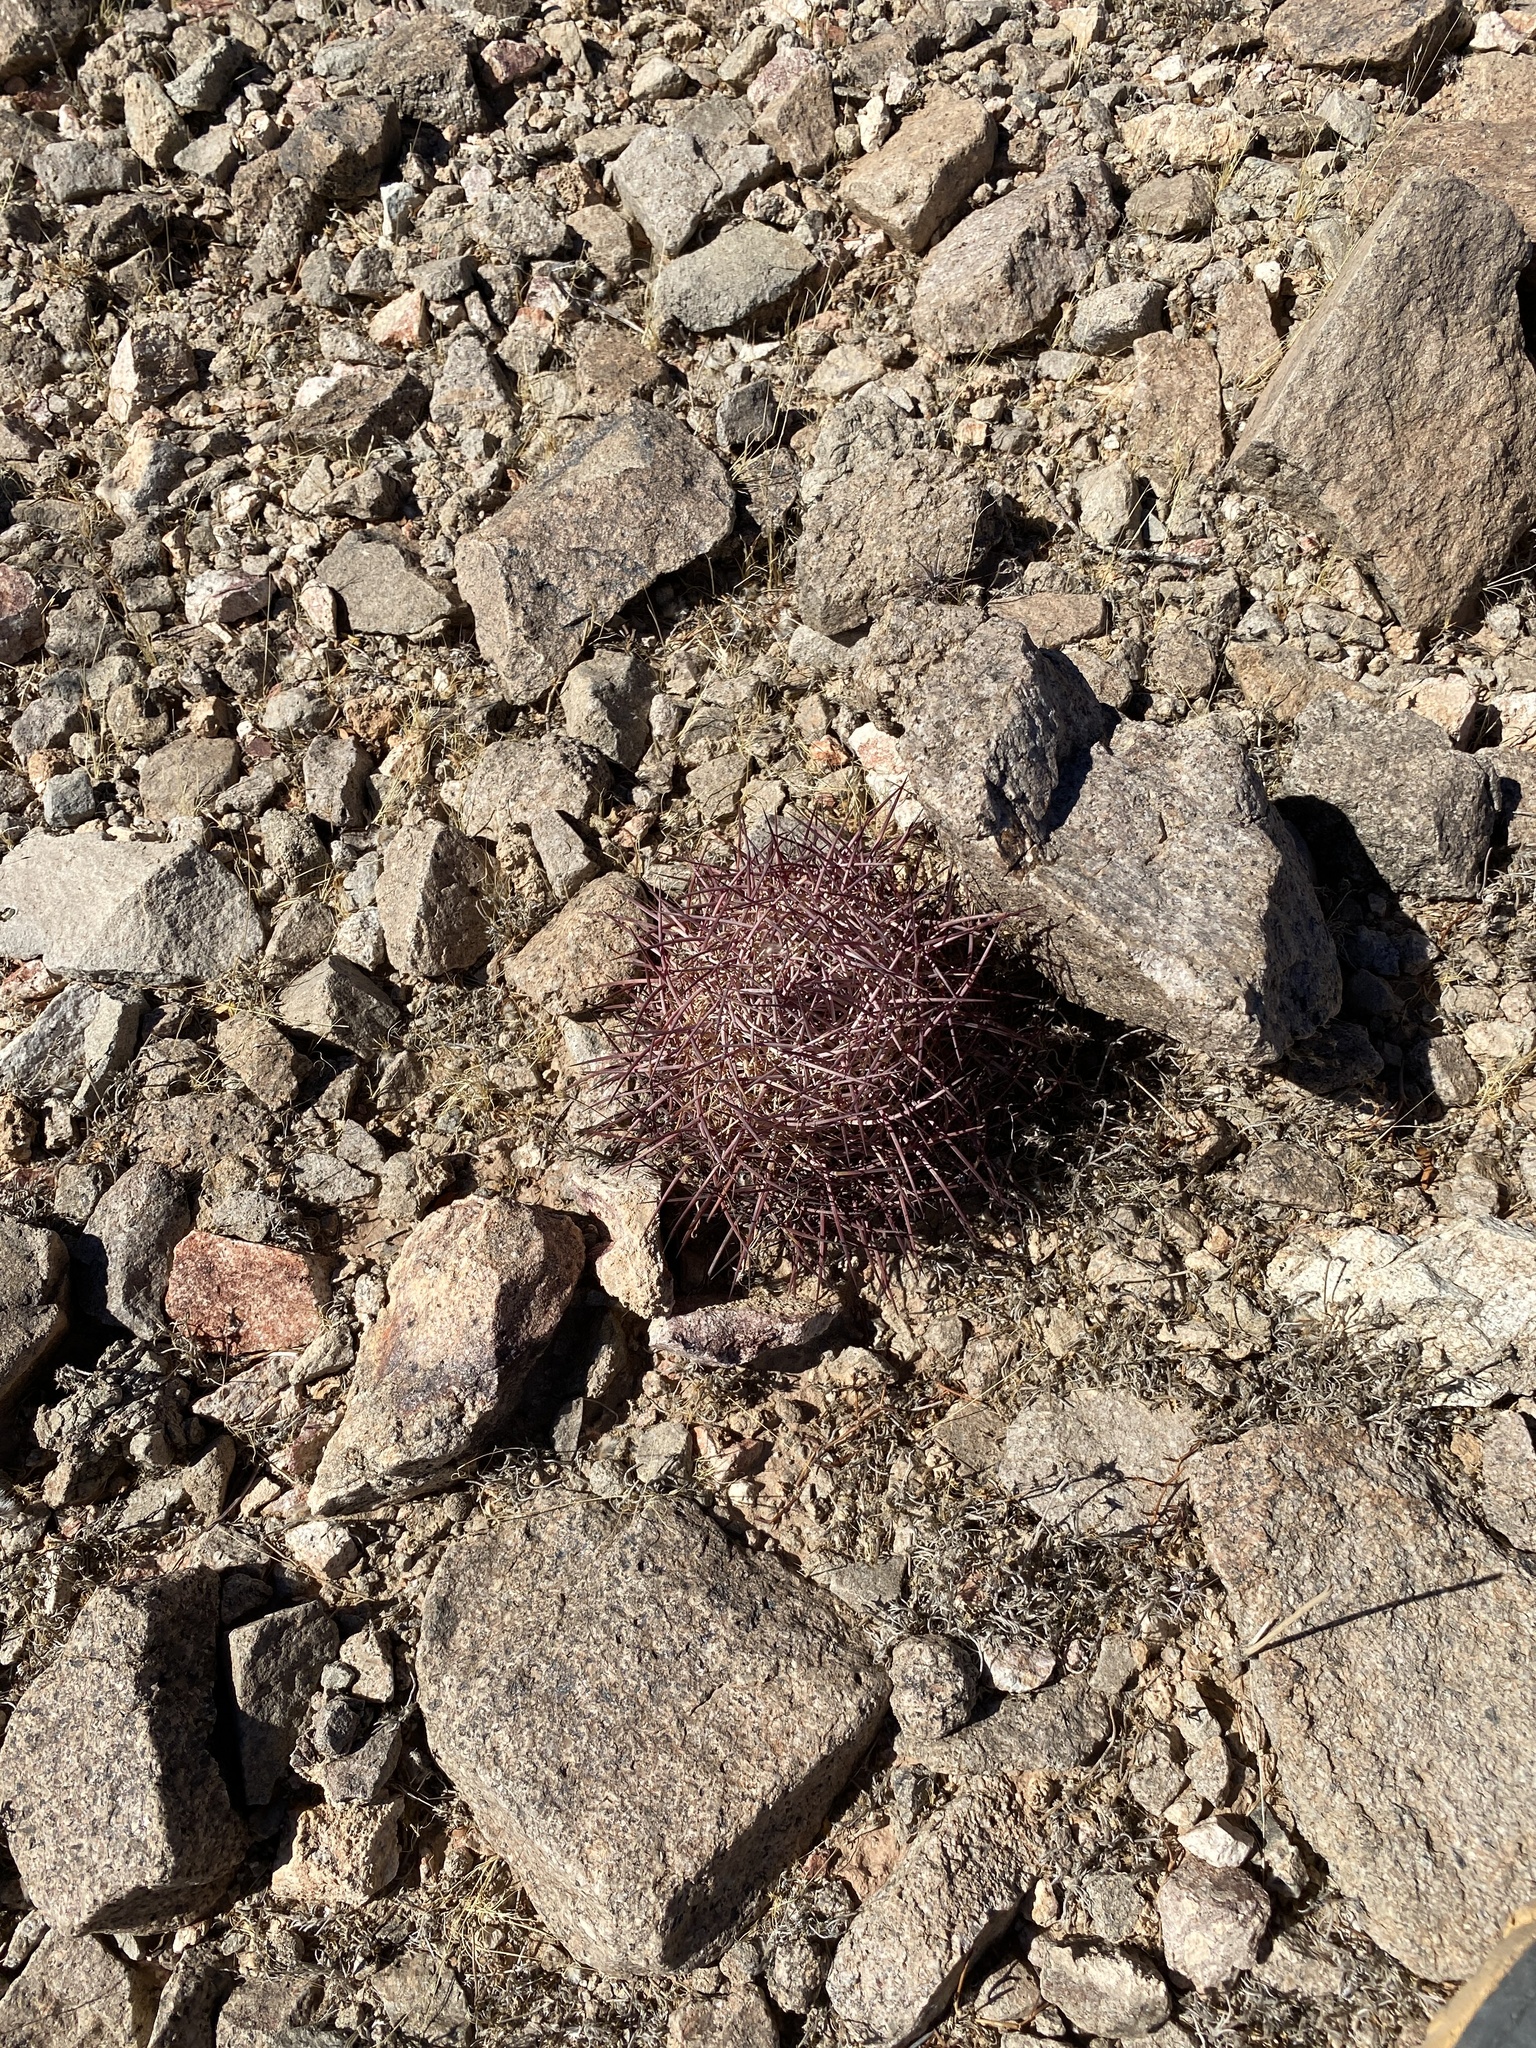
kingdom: Plantae
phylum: Tracheophyta
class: Magnoliopsida
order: Caryophyllales
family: Cactaceae
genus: Sclerocactus
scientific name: Sclerocactus johnsonii
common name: Eight-spine fishhook cactus
